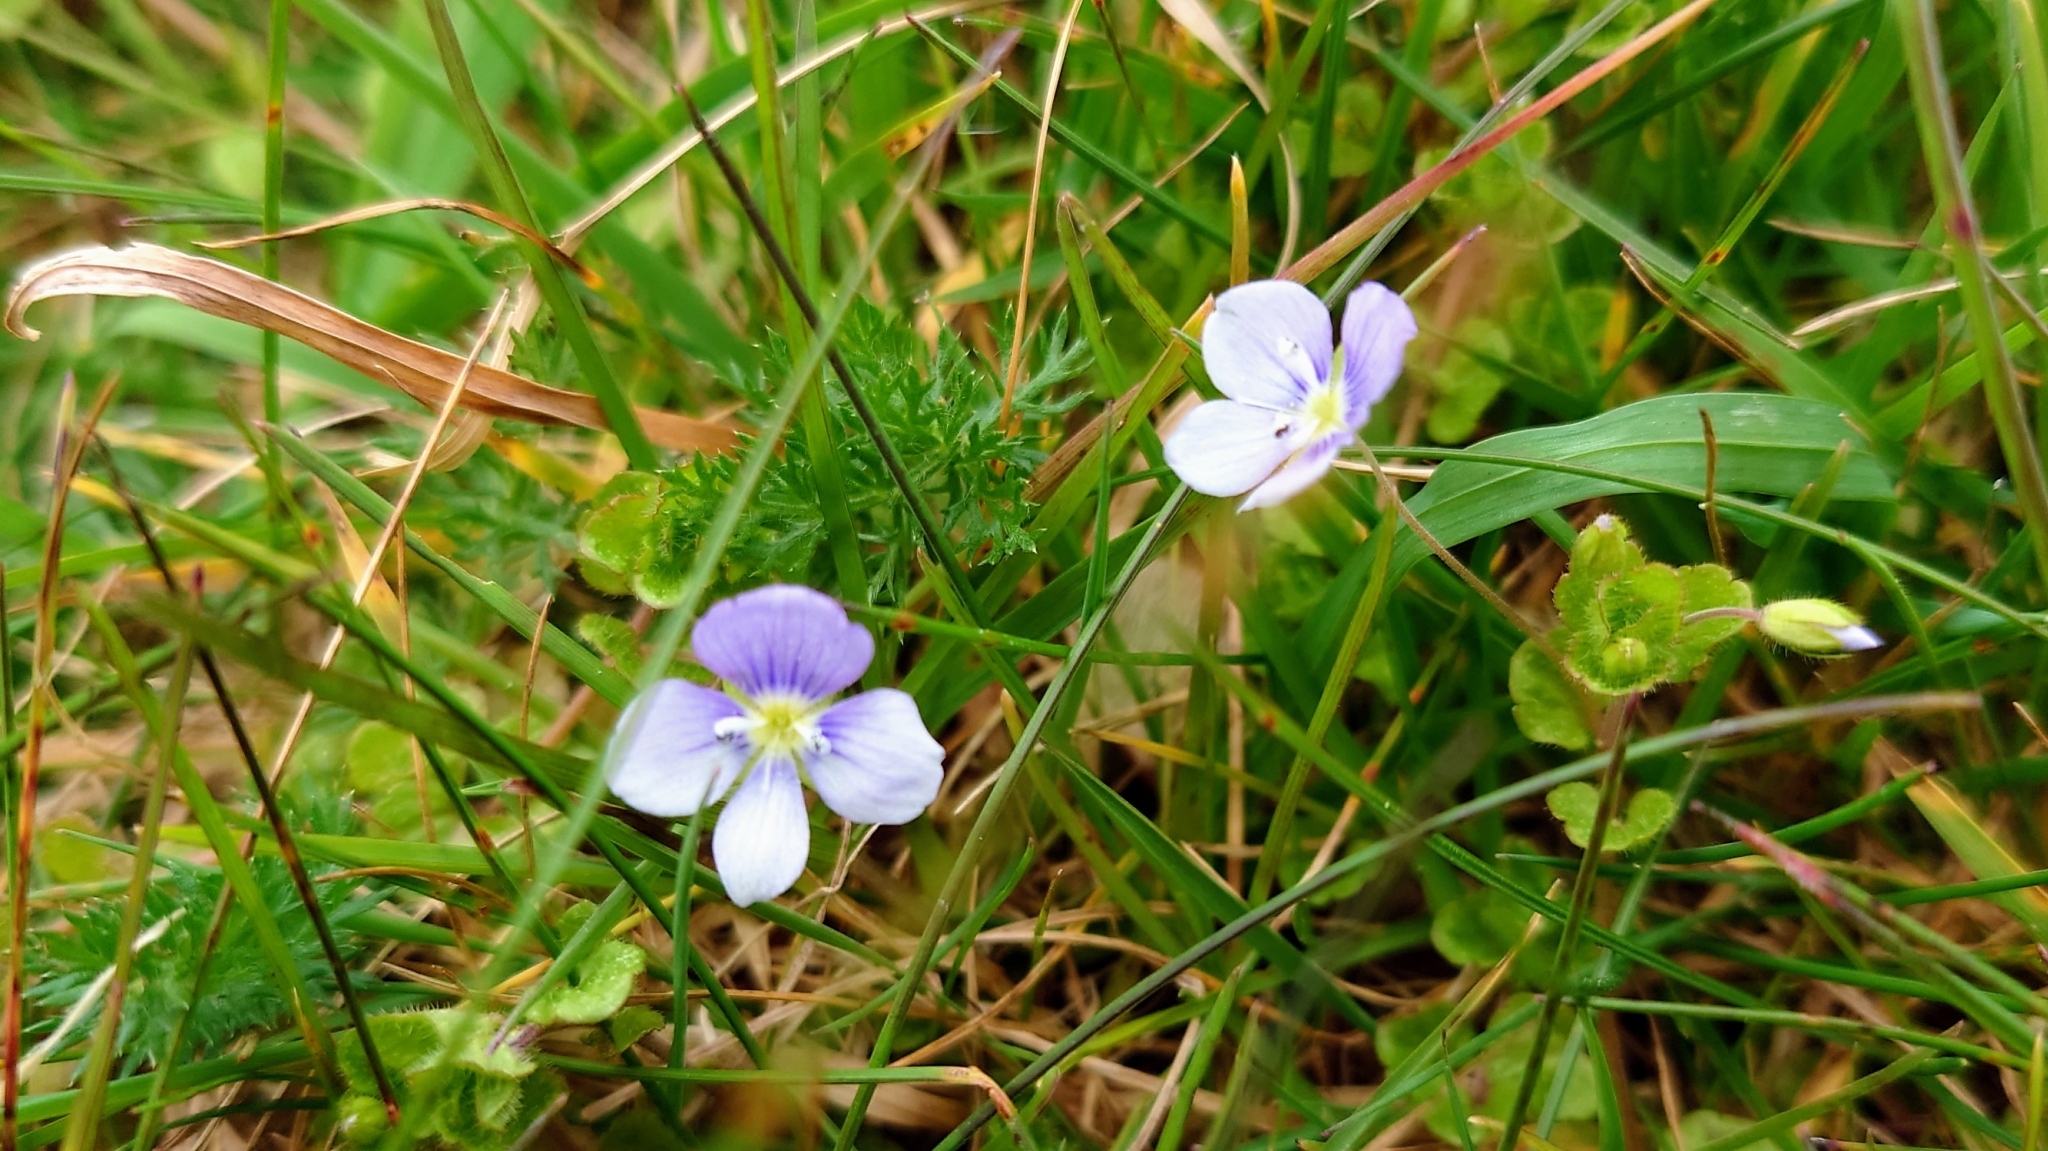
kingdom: Plantae
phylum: Tracheophyta
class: Magnoliopsida
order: Lamiales
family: Plantaginaceae
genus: Veronica
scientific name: Veronica filiformis
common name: Slender speedwell
